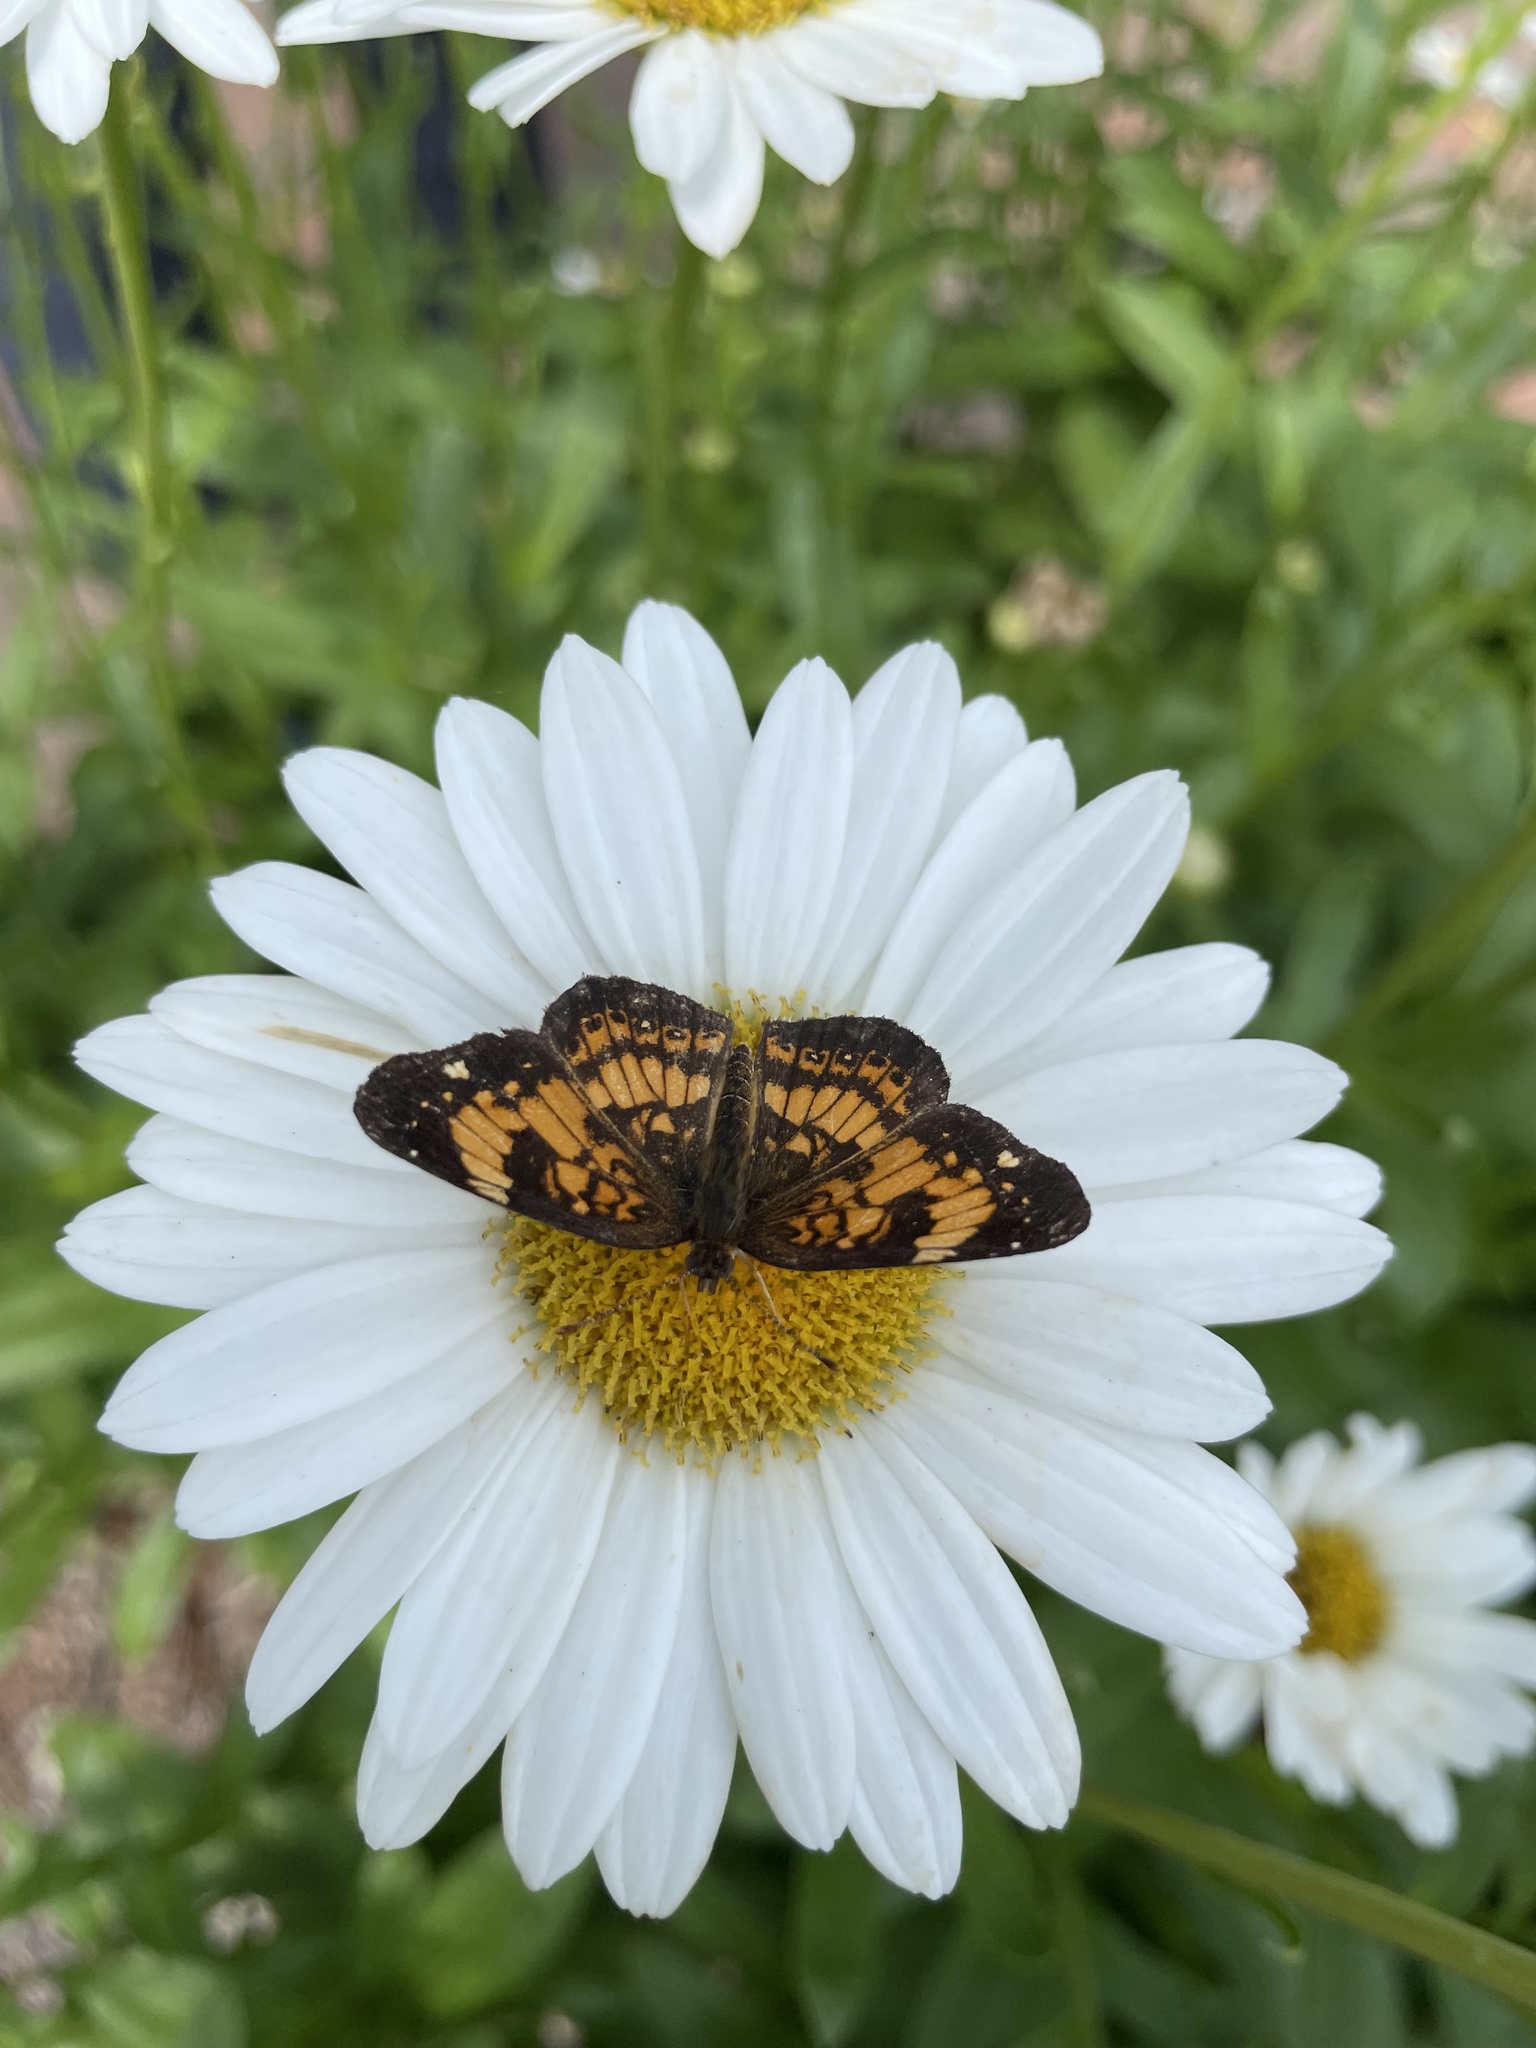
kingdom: Animalia
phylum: Arthropoda
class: Insecta
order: Lepidoptera
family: Nymphalidae
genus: Chlosyne
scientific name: Chlosyne nycteis
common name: Silvery checkerspot
